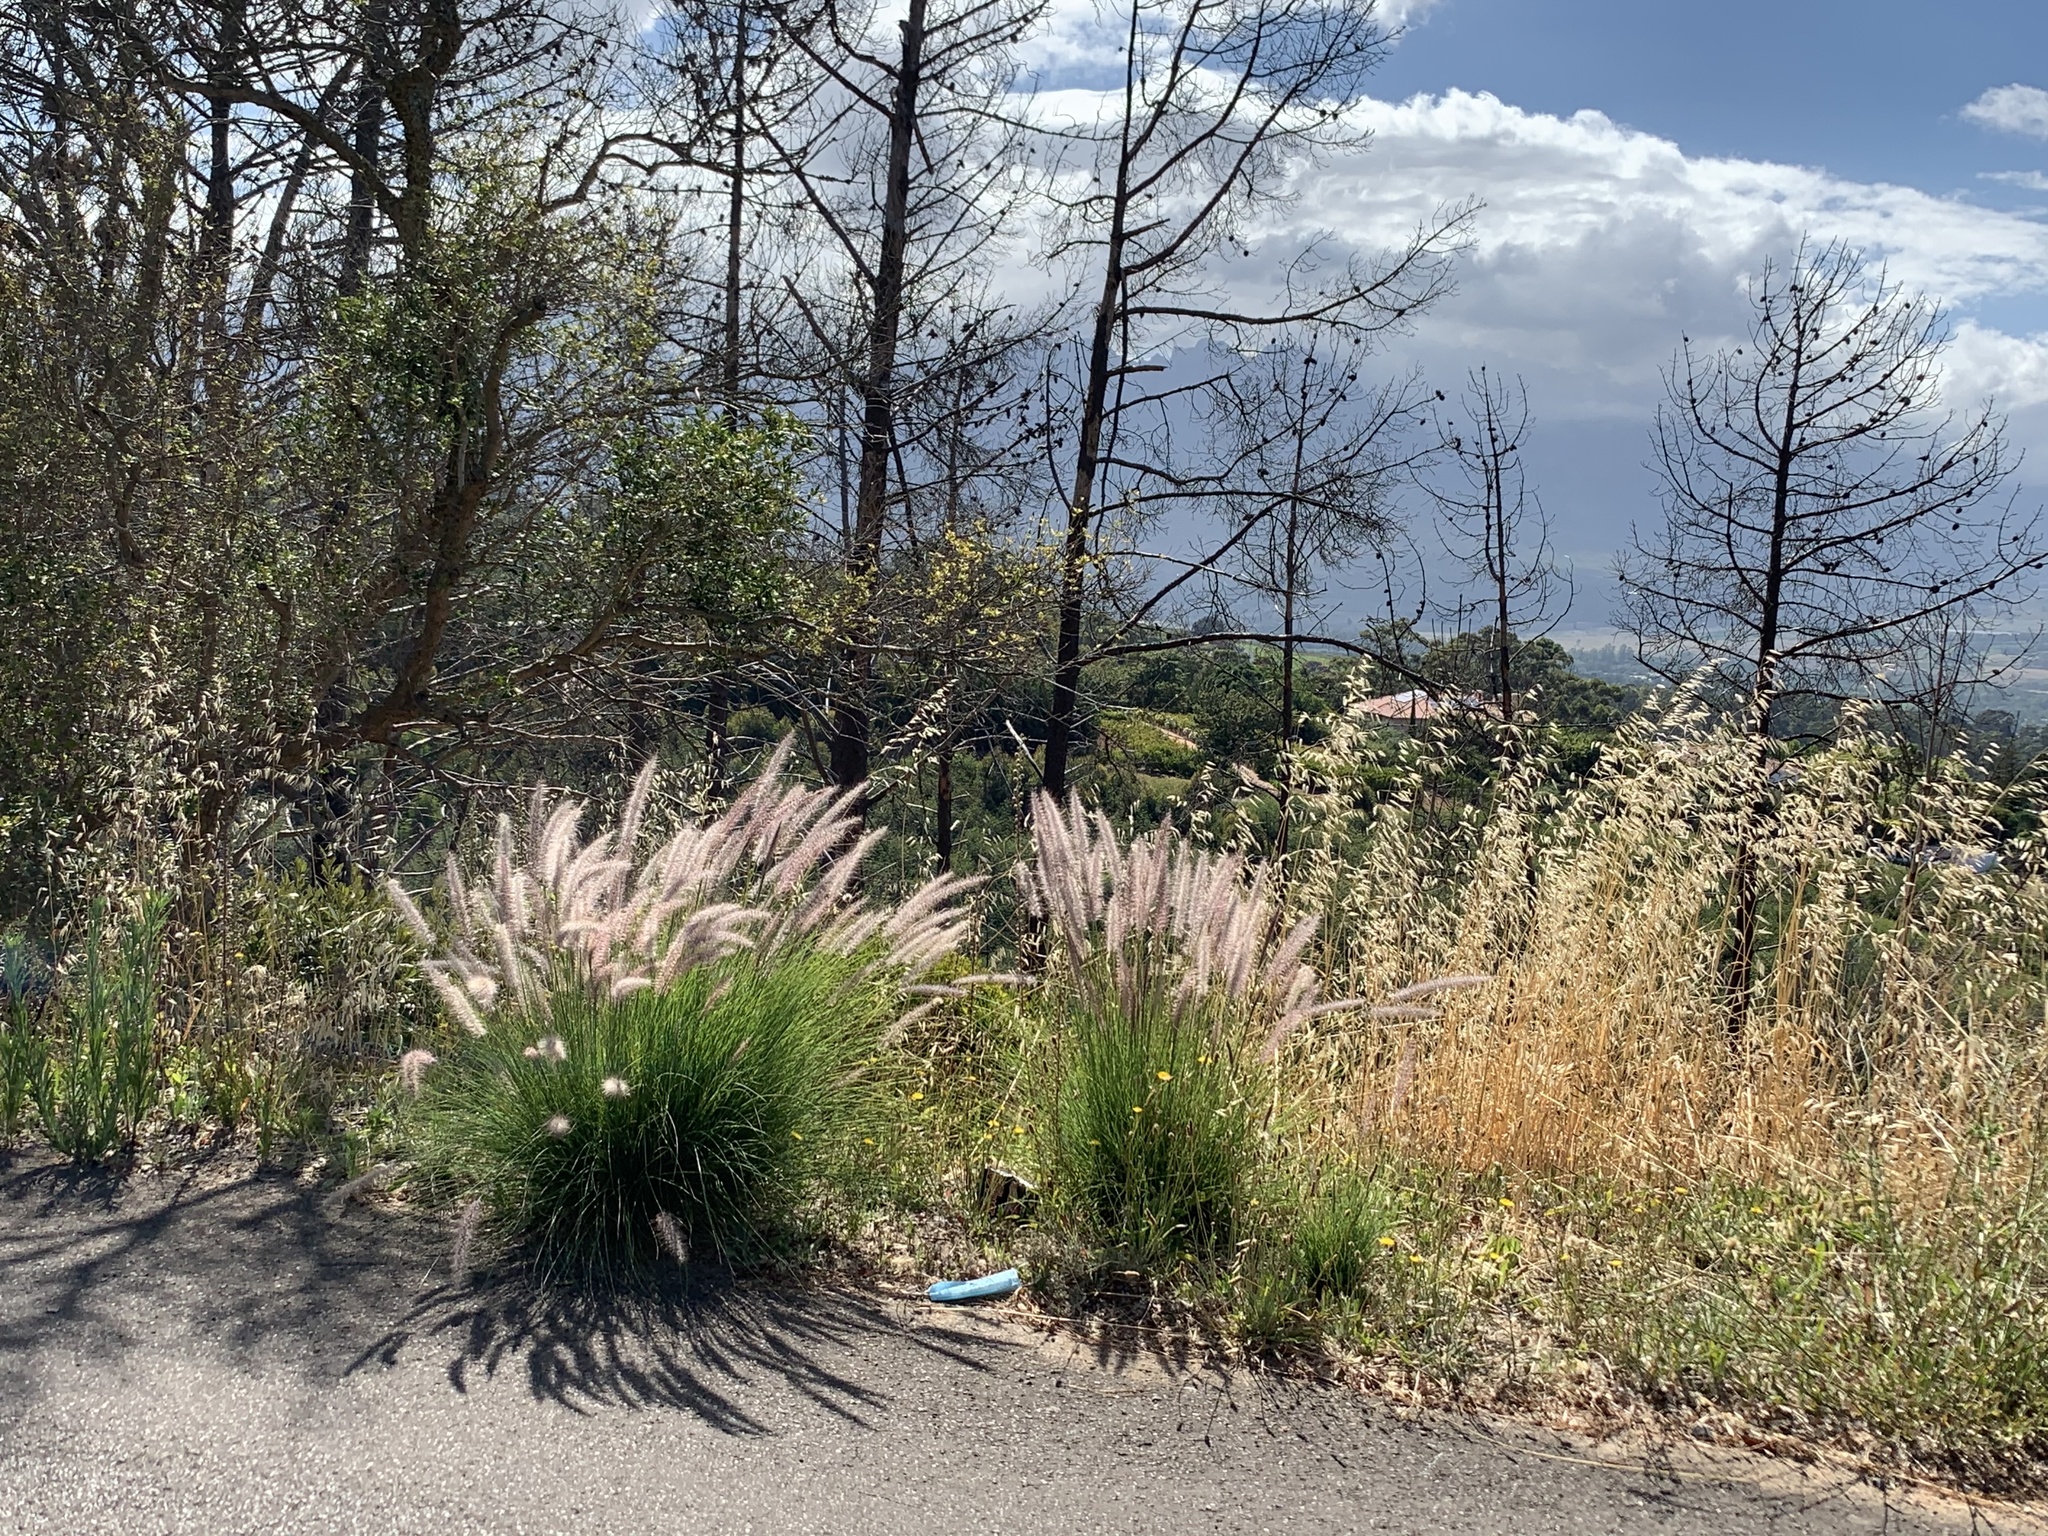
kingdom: Plantae
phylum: Tracheophyta
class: Liliopsida
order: Poales
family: Poaceae
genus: Cenchrus
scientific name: Cenchrus setaceus
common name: Crimson fountaingrass
